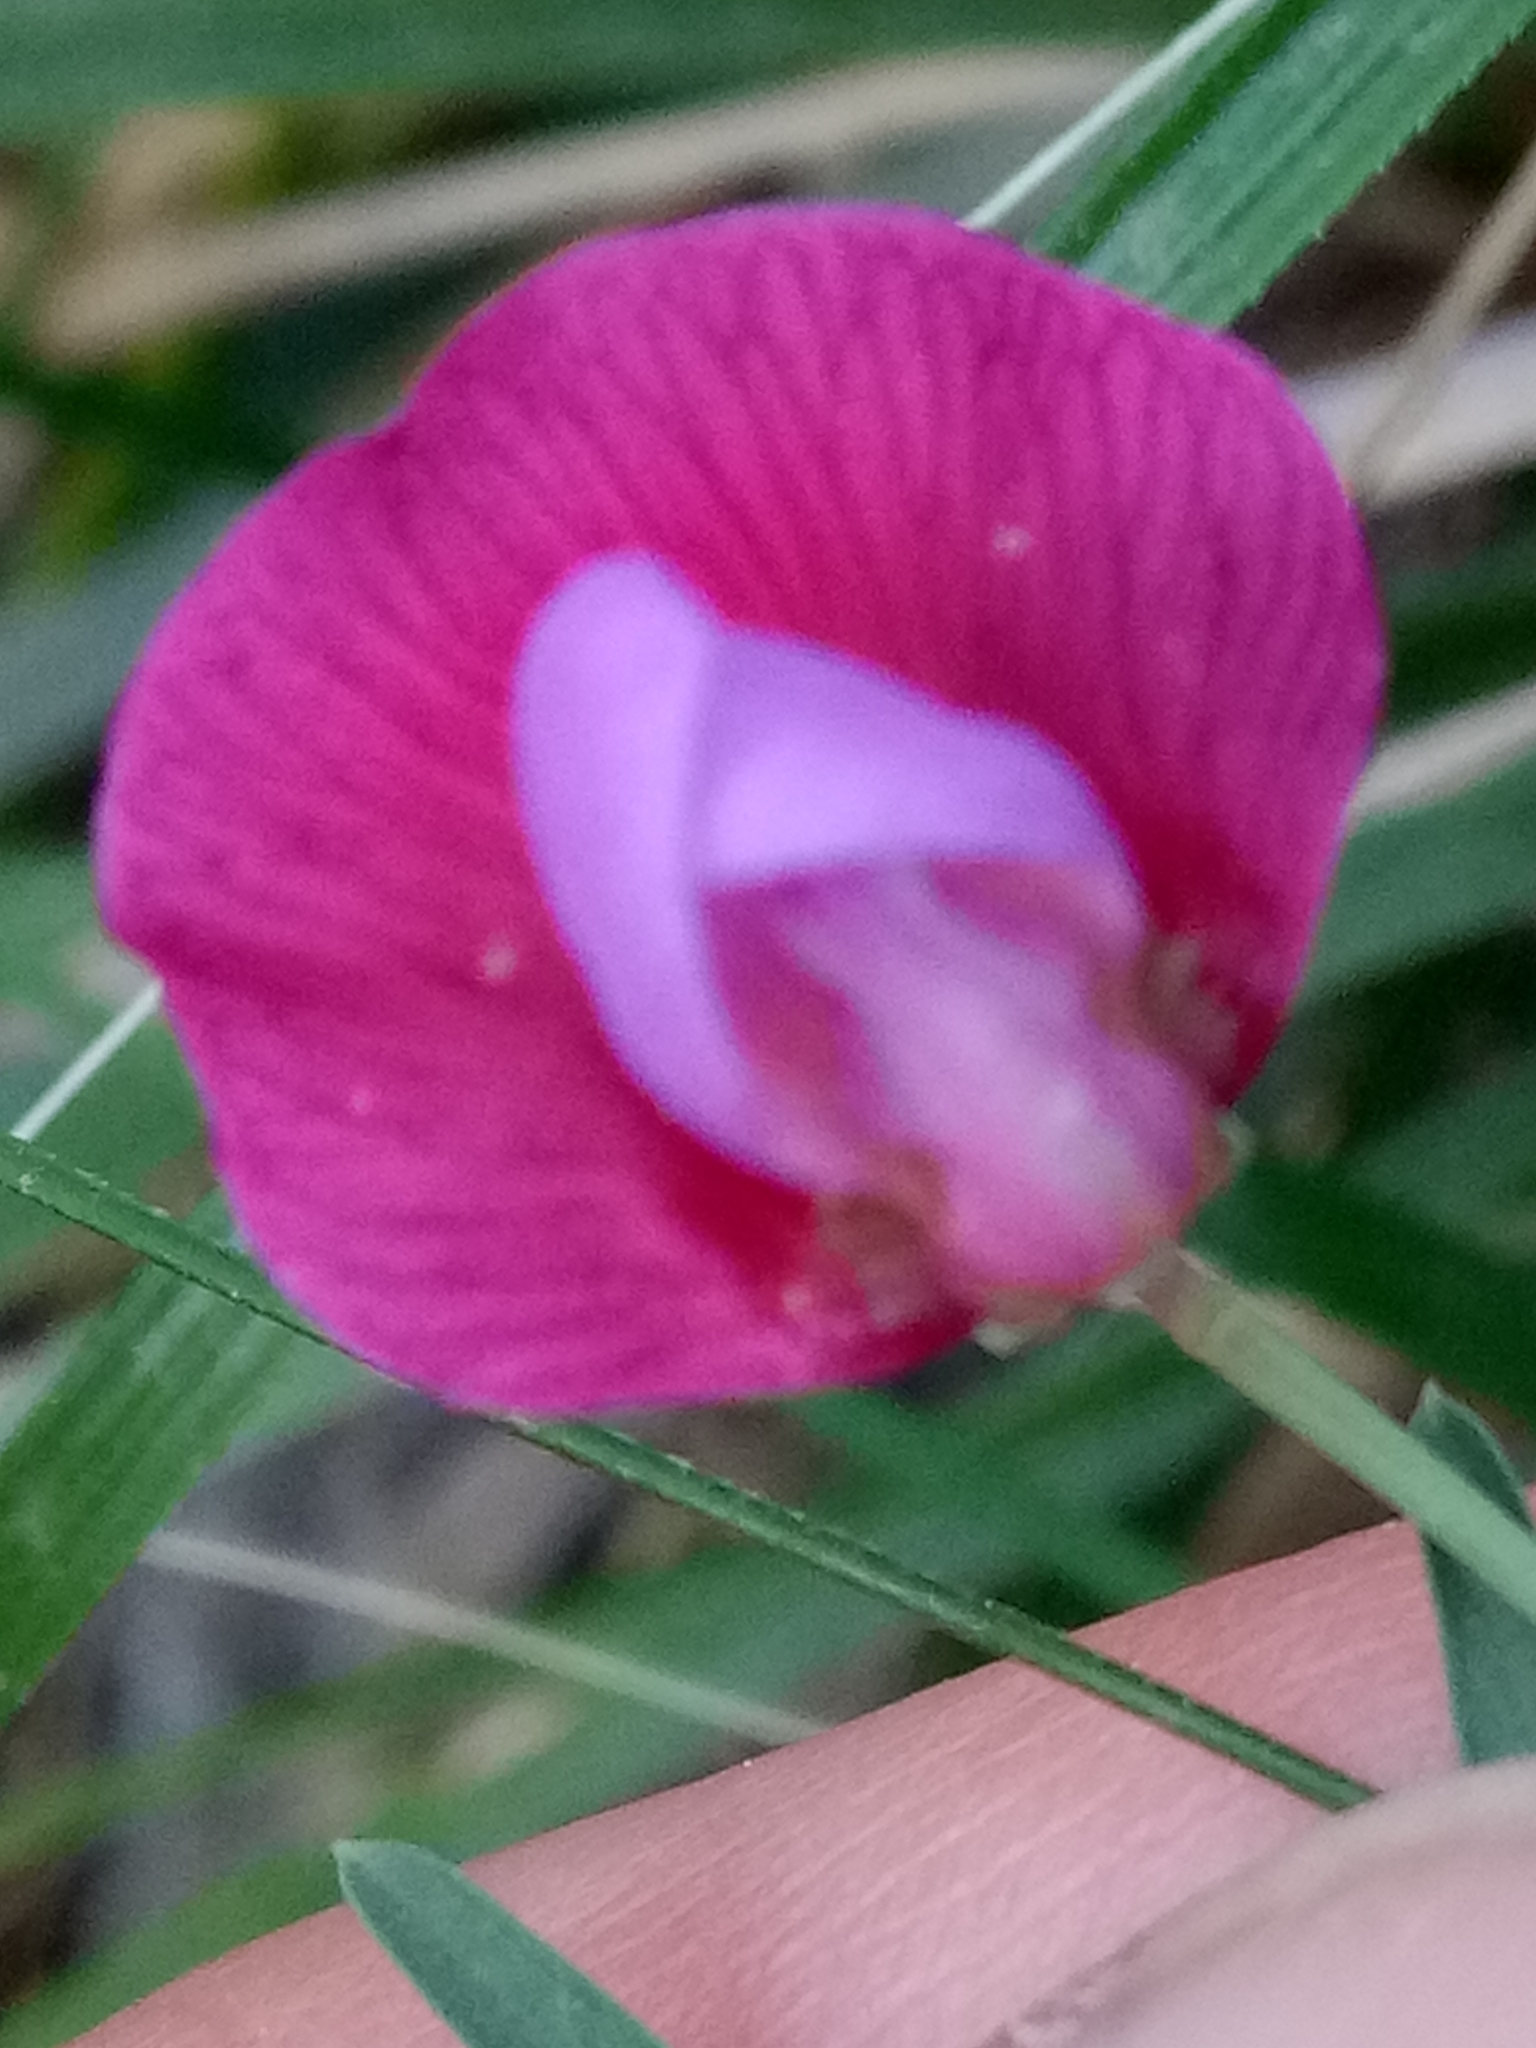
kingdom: Plantae
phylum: Tracheophyta
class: Magnoliopsida
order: Fabales
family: Fabaceae
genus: Lathyrus
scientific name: Lathyrus clymenum
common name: Spanish vetchling
